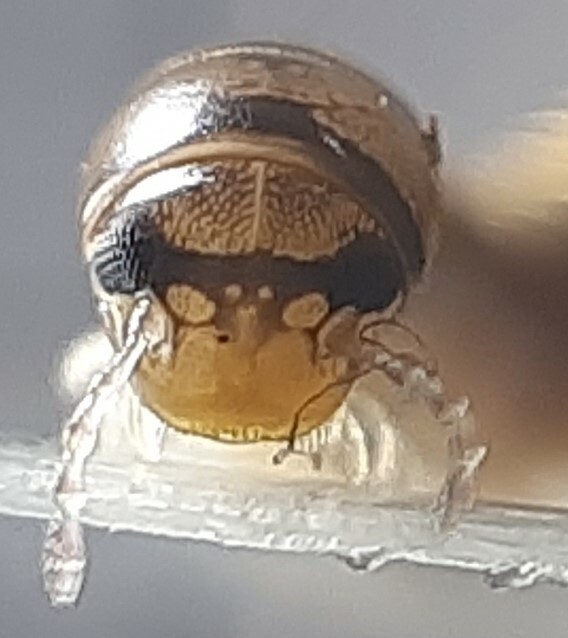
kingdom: Animalia
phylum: Arthropoda
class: Diplopoda
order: Julida
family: Julidae
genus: Cylindroiulus
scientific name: Cylindroiulus latzeli
